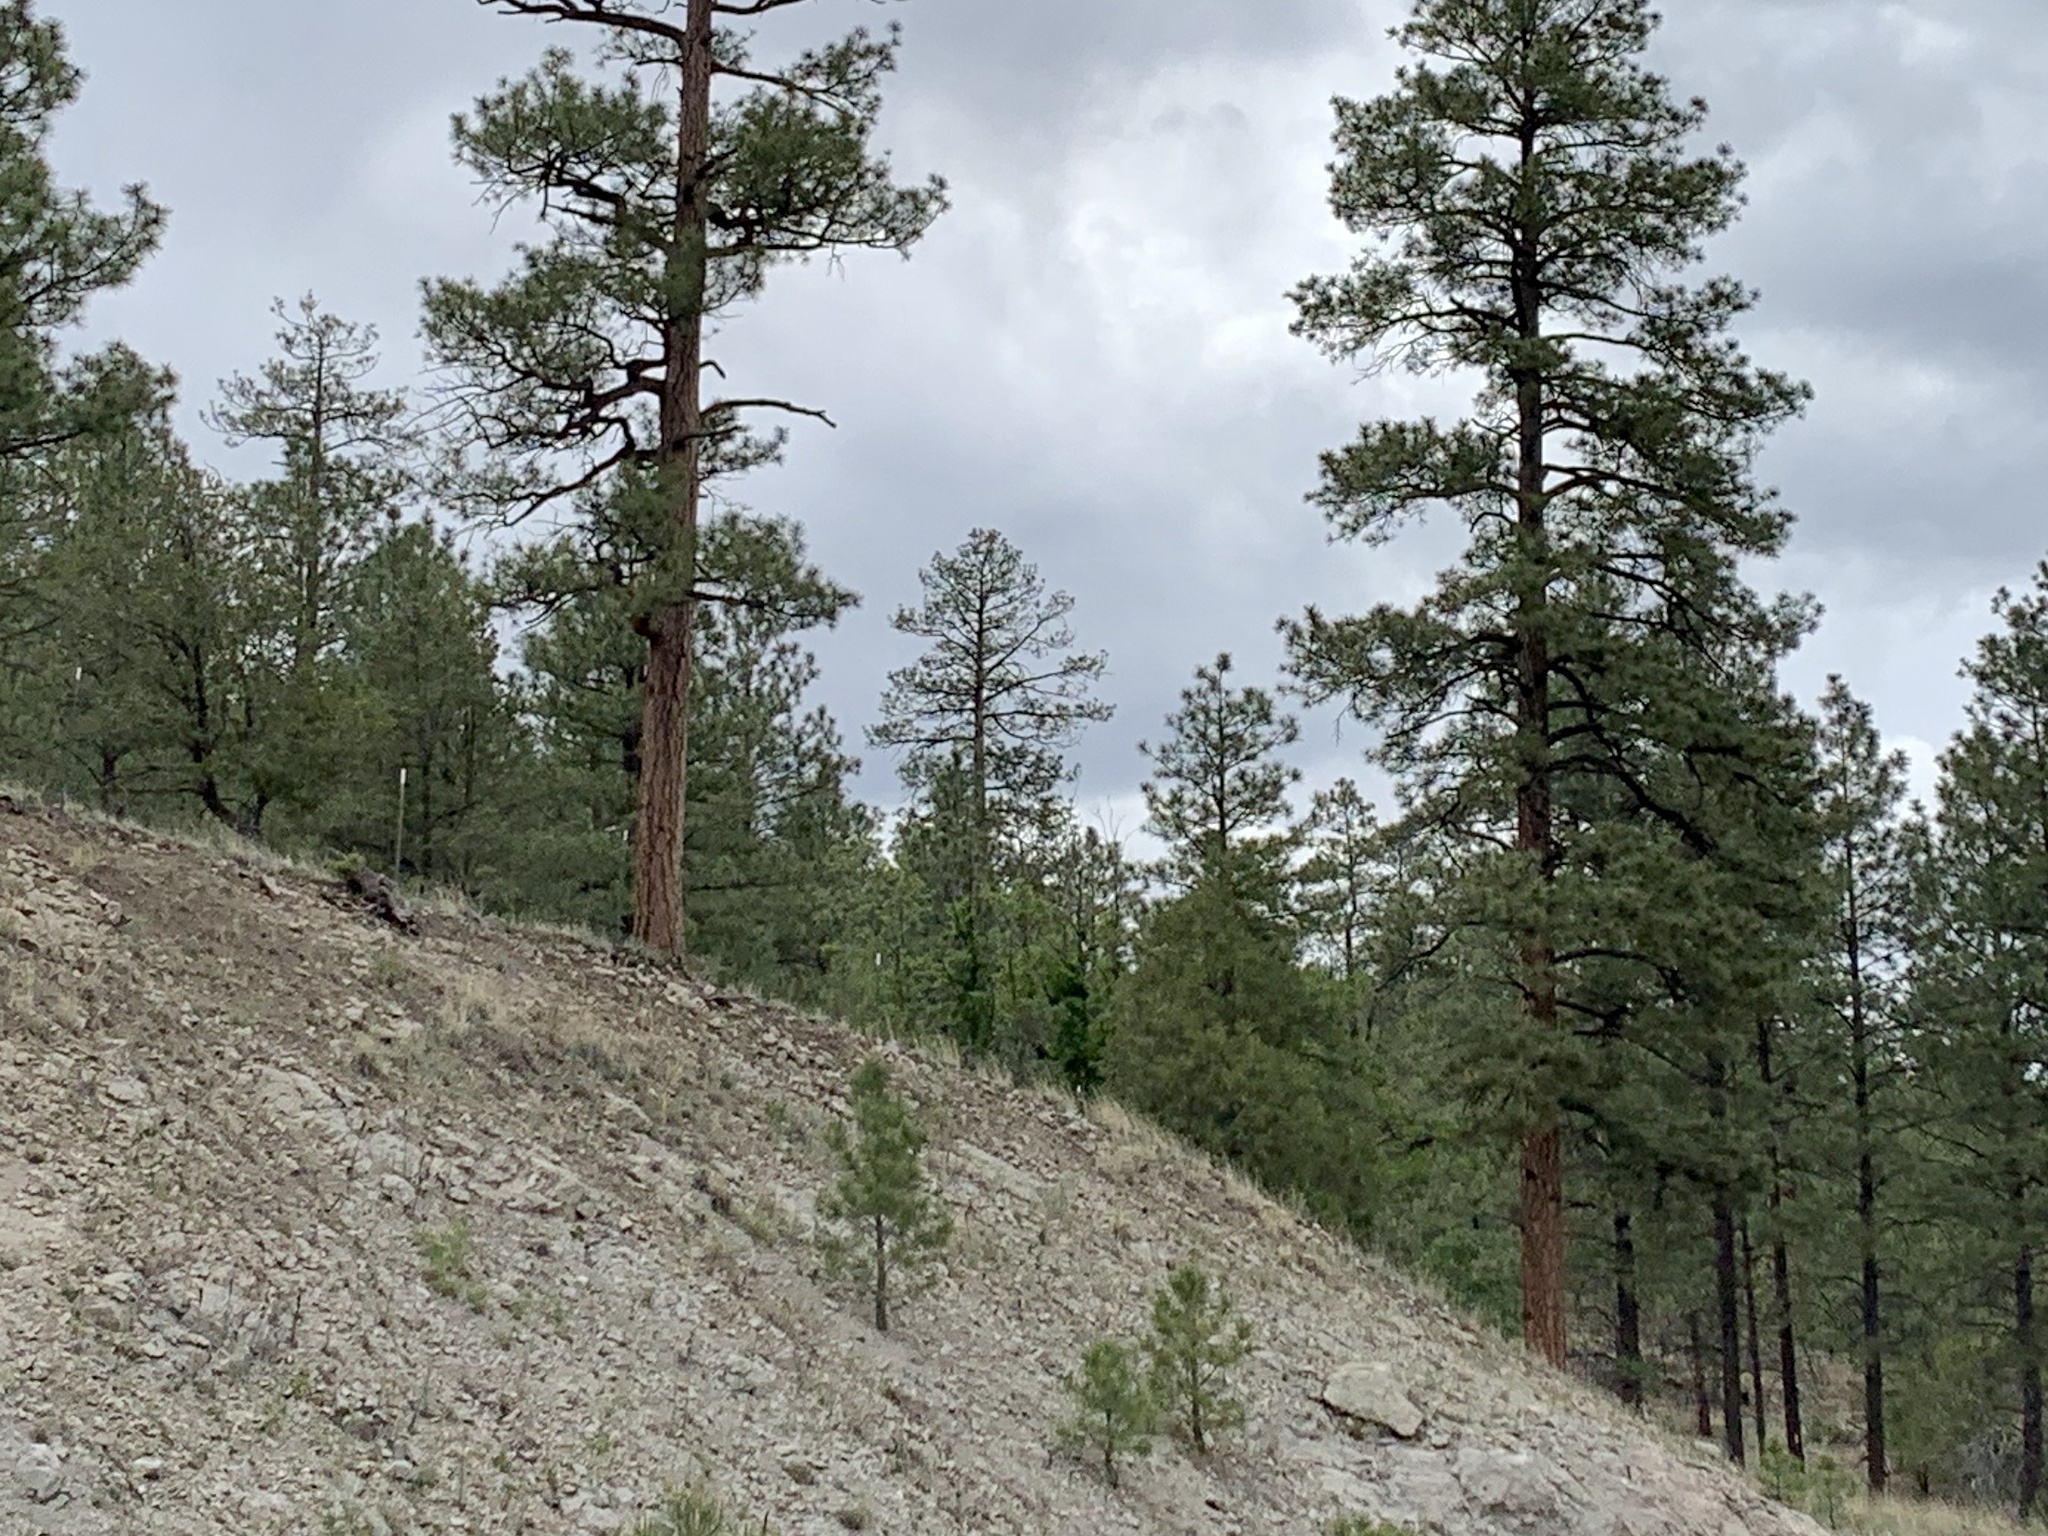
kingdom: Plantae
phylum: Tracheophyta
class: Pinopsida
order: Pinales
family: Pinaceae
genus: Pinus
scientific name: Pinus ponderosa
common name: Western yellow-pine
